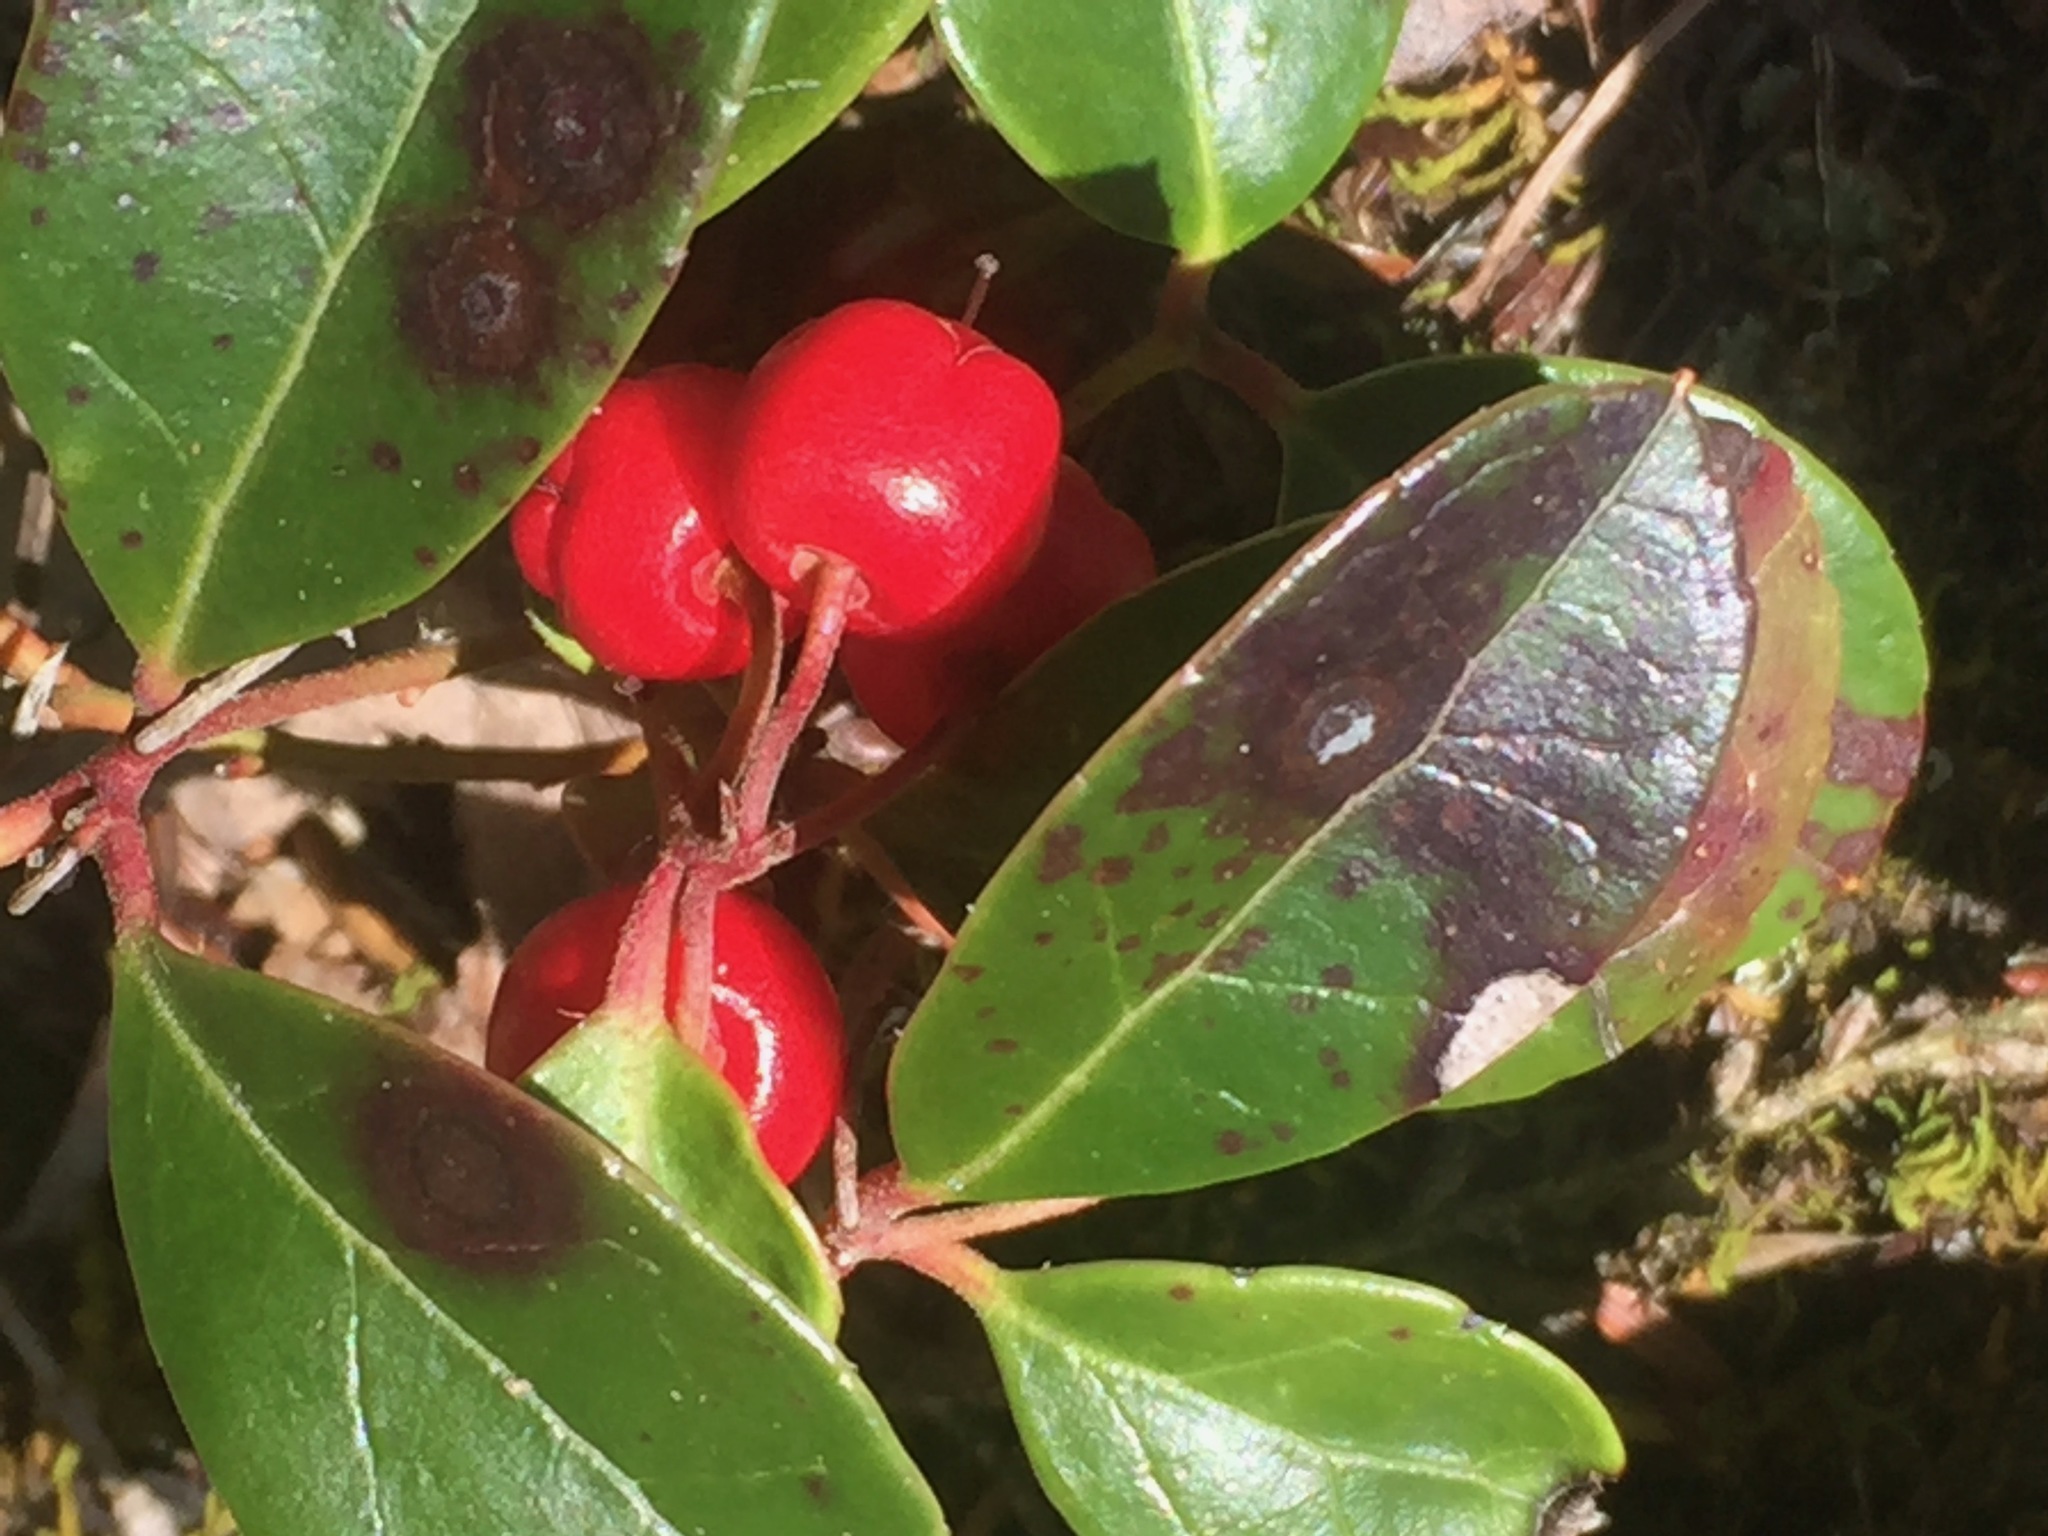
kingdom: Plantae
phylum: Tracheophyta
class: Magnoliopsida
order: Ericales
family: Ericaceae
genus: Gaultheria
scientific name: Gaultheria procumbens
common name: Checkerberry
